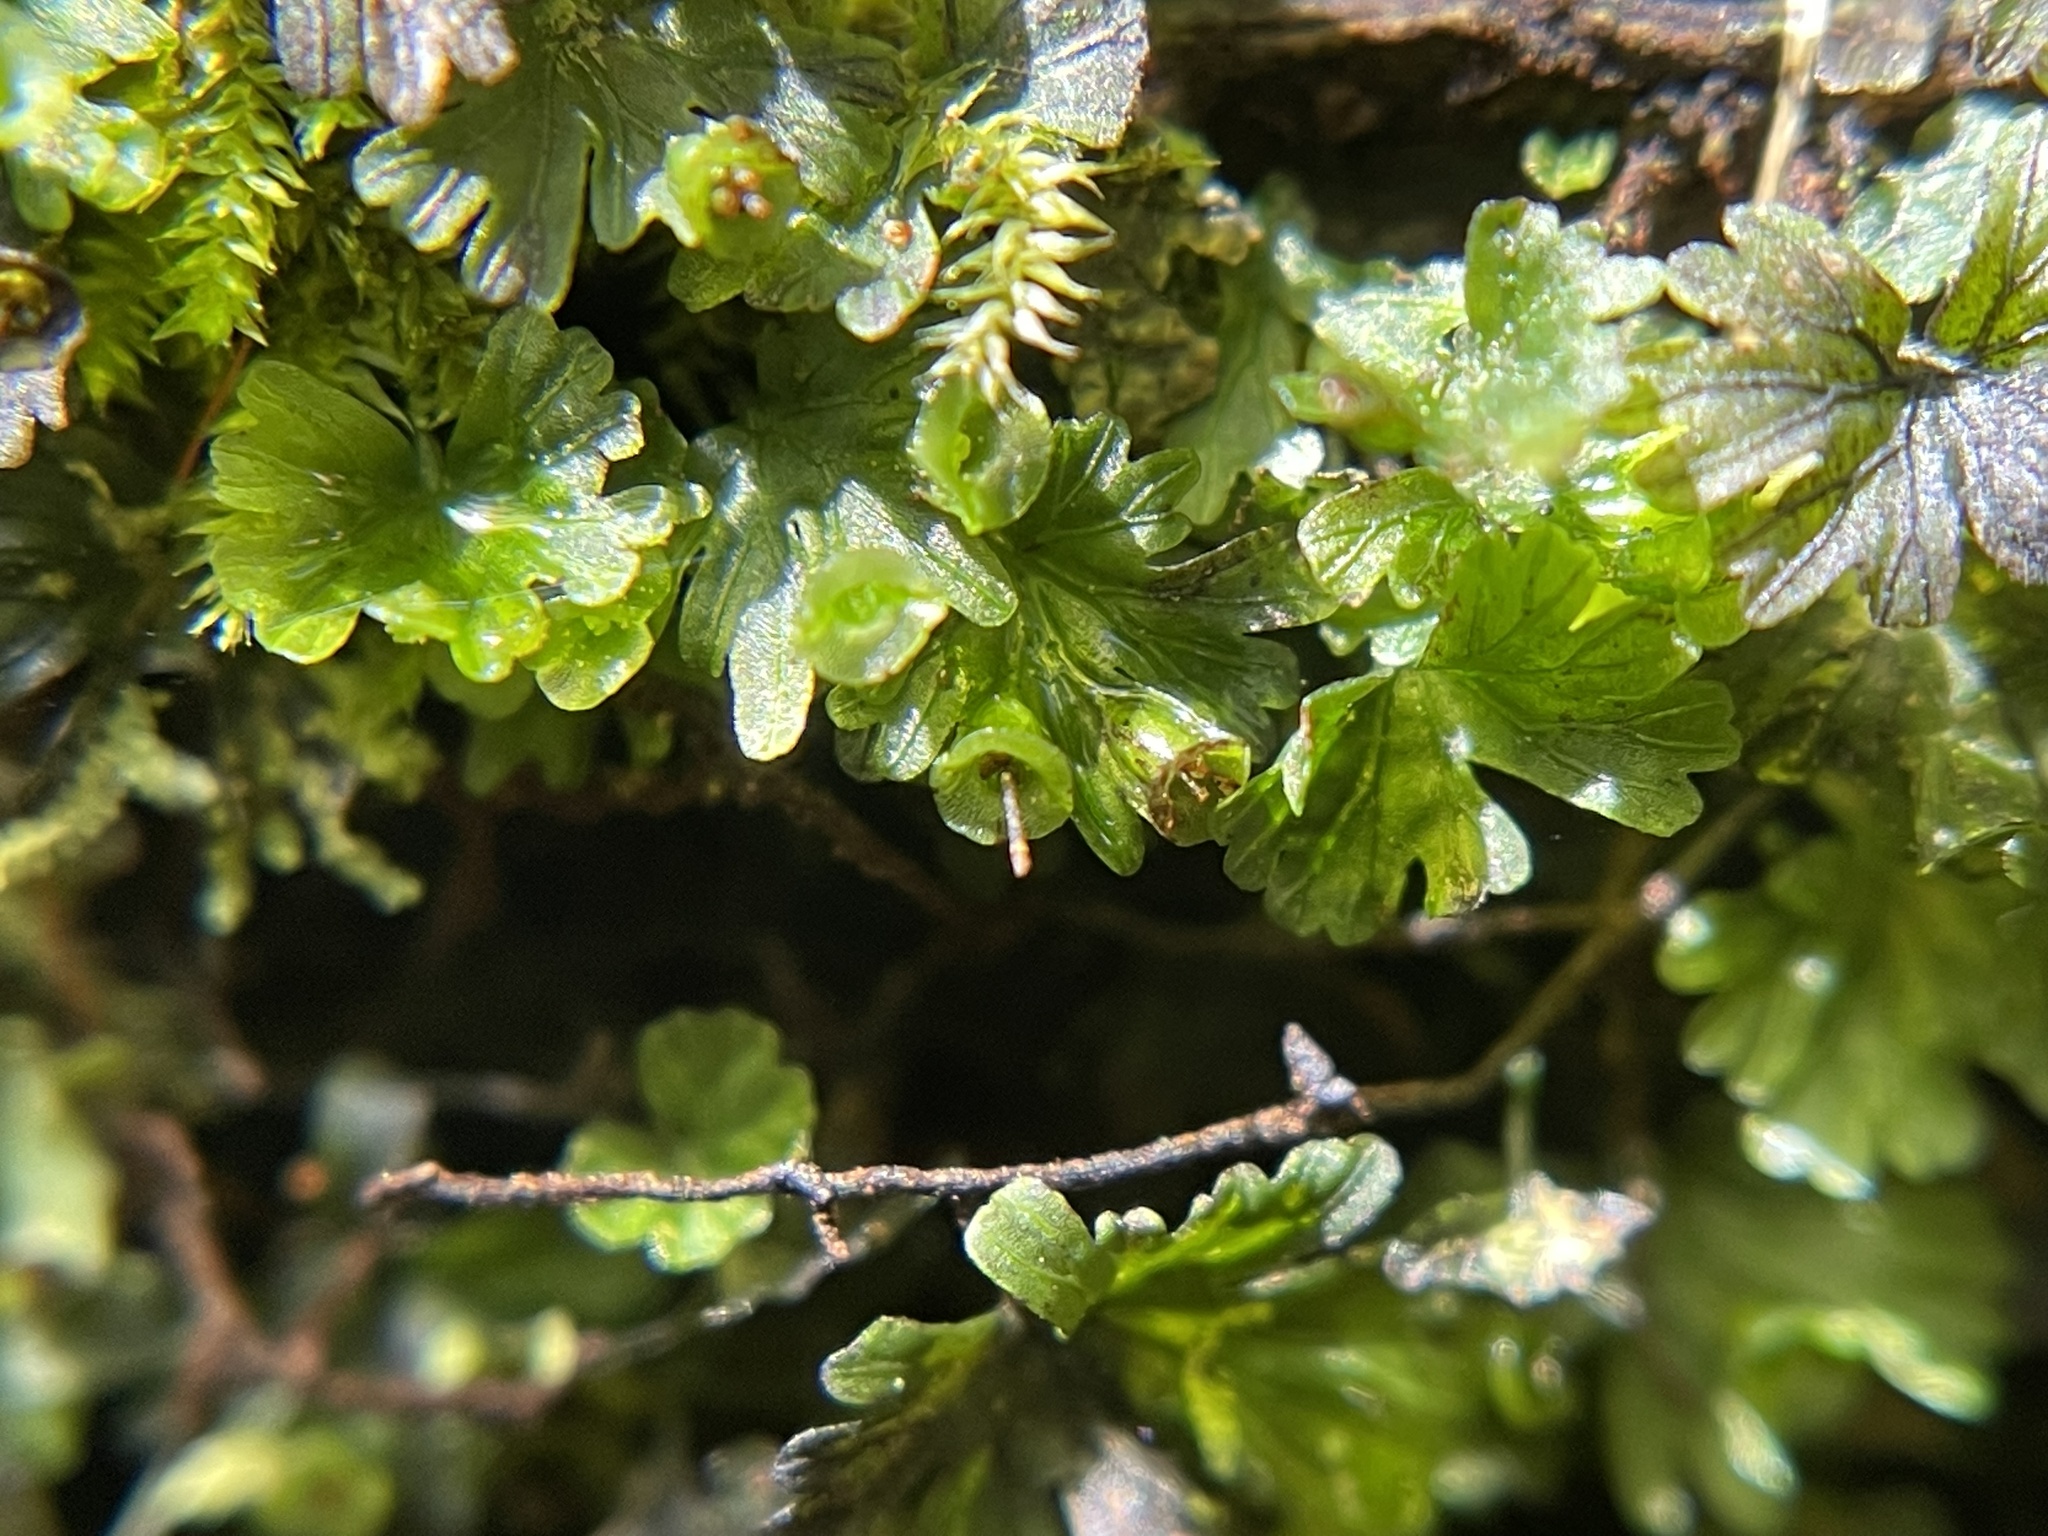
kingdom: Plantae
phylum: Tracheophyta
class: Polypodiopsida
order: Hymenophyllales
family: Hymenophyllaceae
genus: Crepidomanes
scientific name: Crepidomanes parvulum
